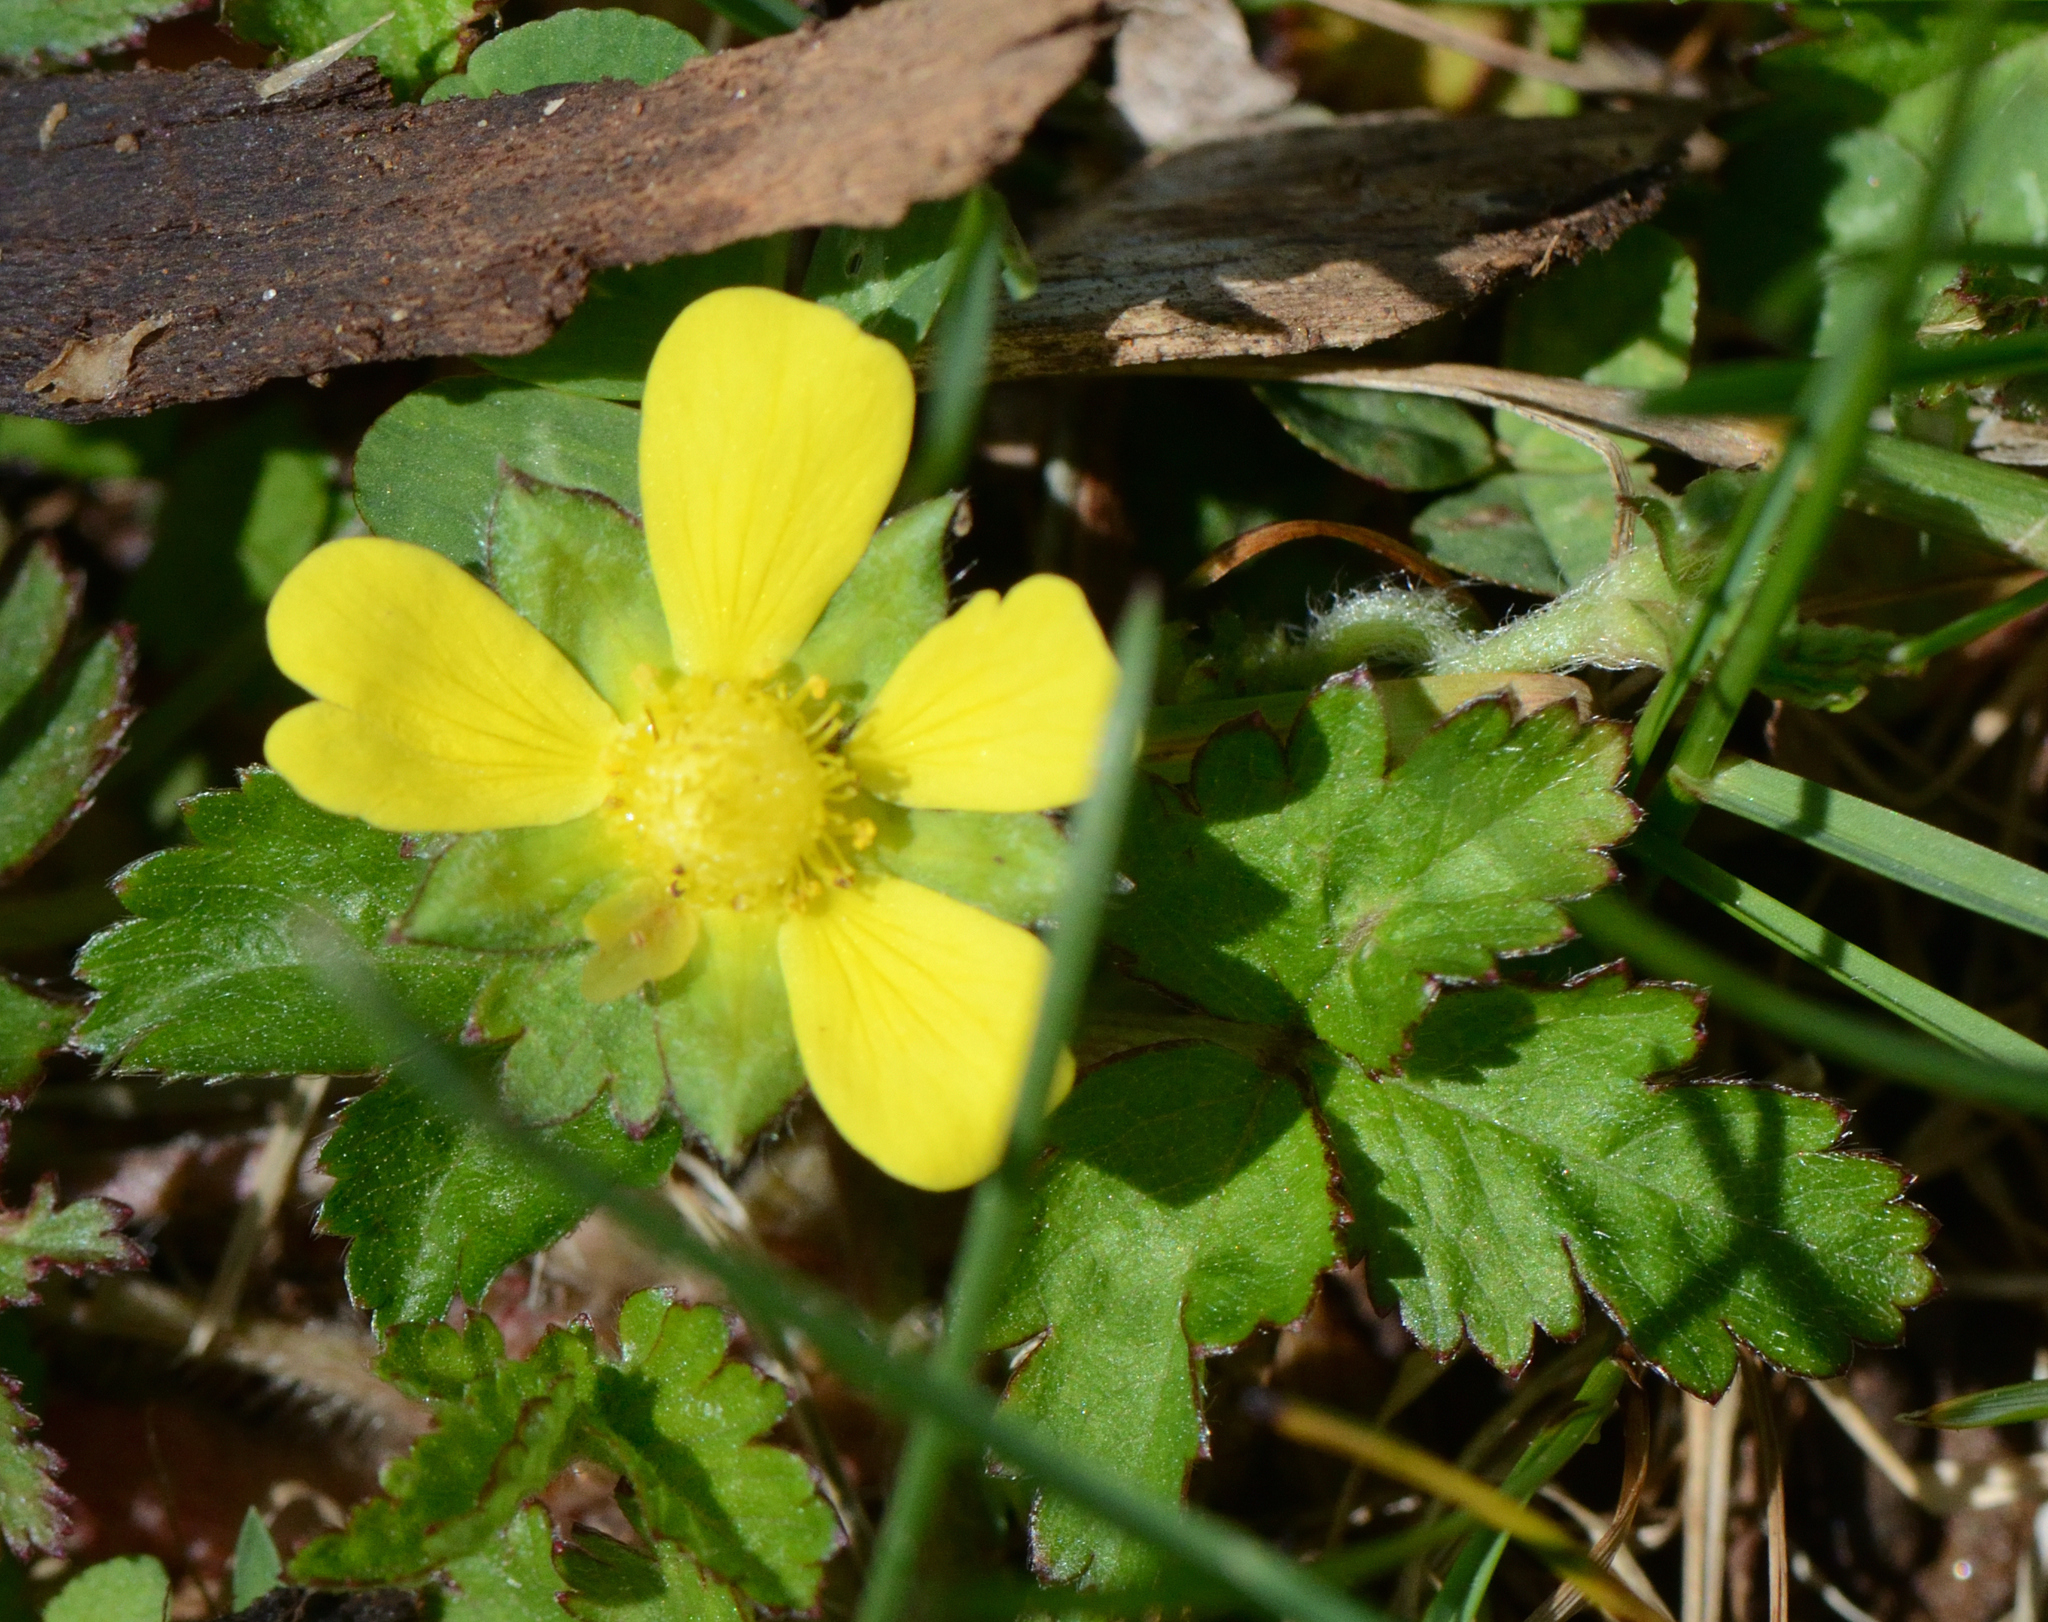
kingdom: Plantae
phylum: Tracheophyta
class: Magnoliopsida
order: Rosales
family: Rosaceae
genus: Potentilla
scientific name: Potentilla indica
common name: Yellow-flowered strawberry
